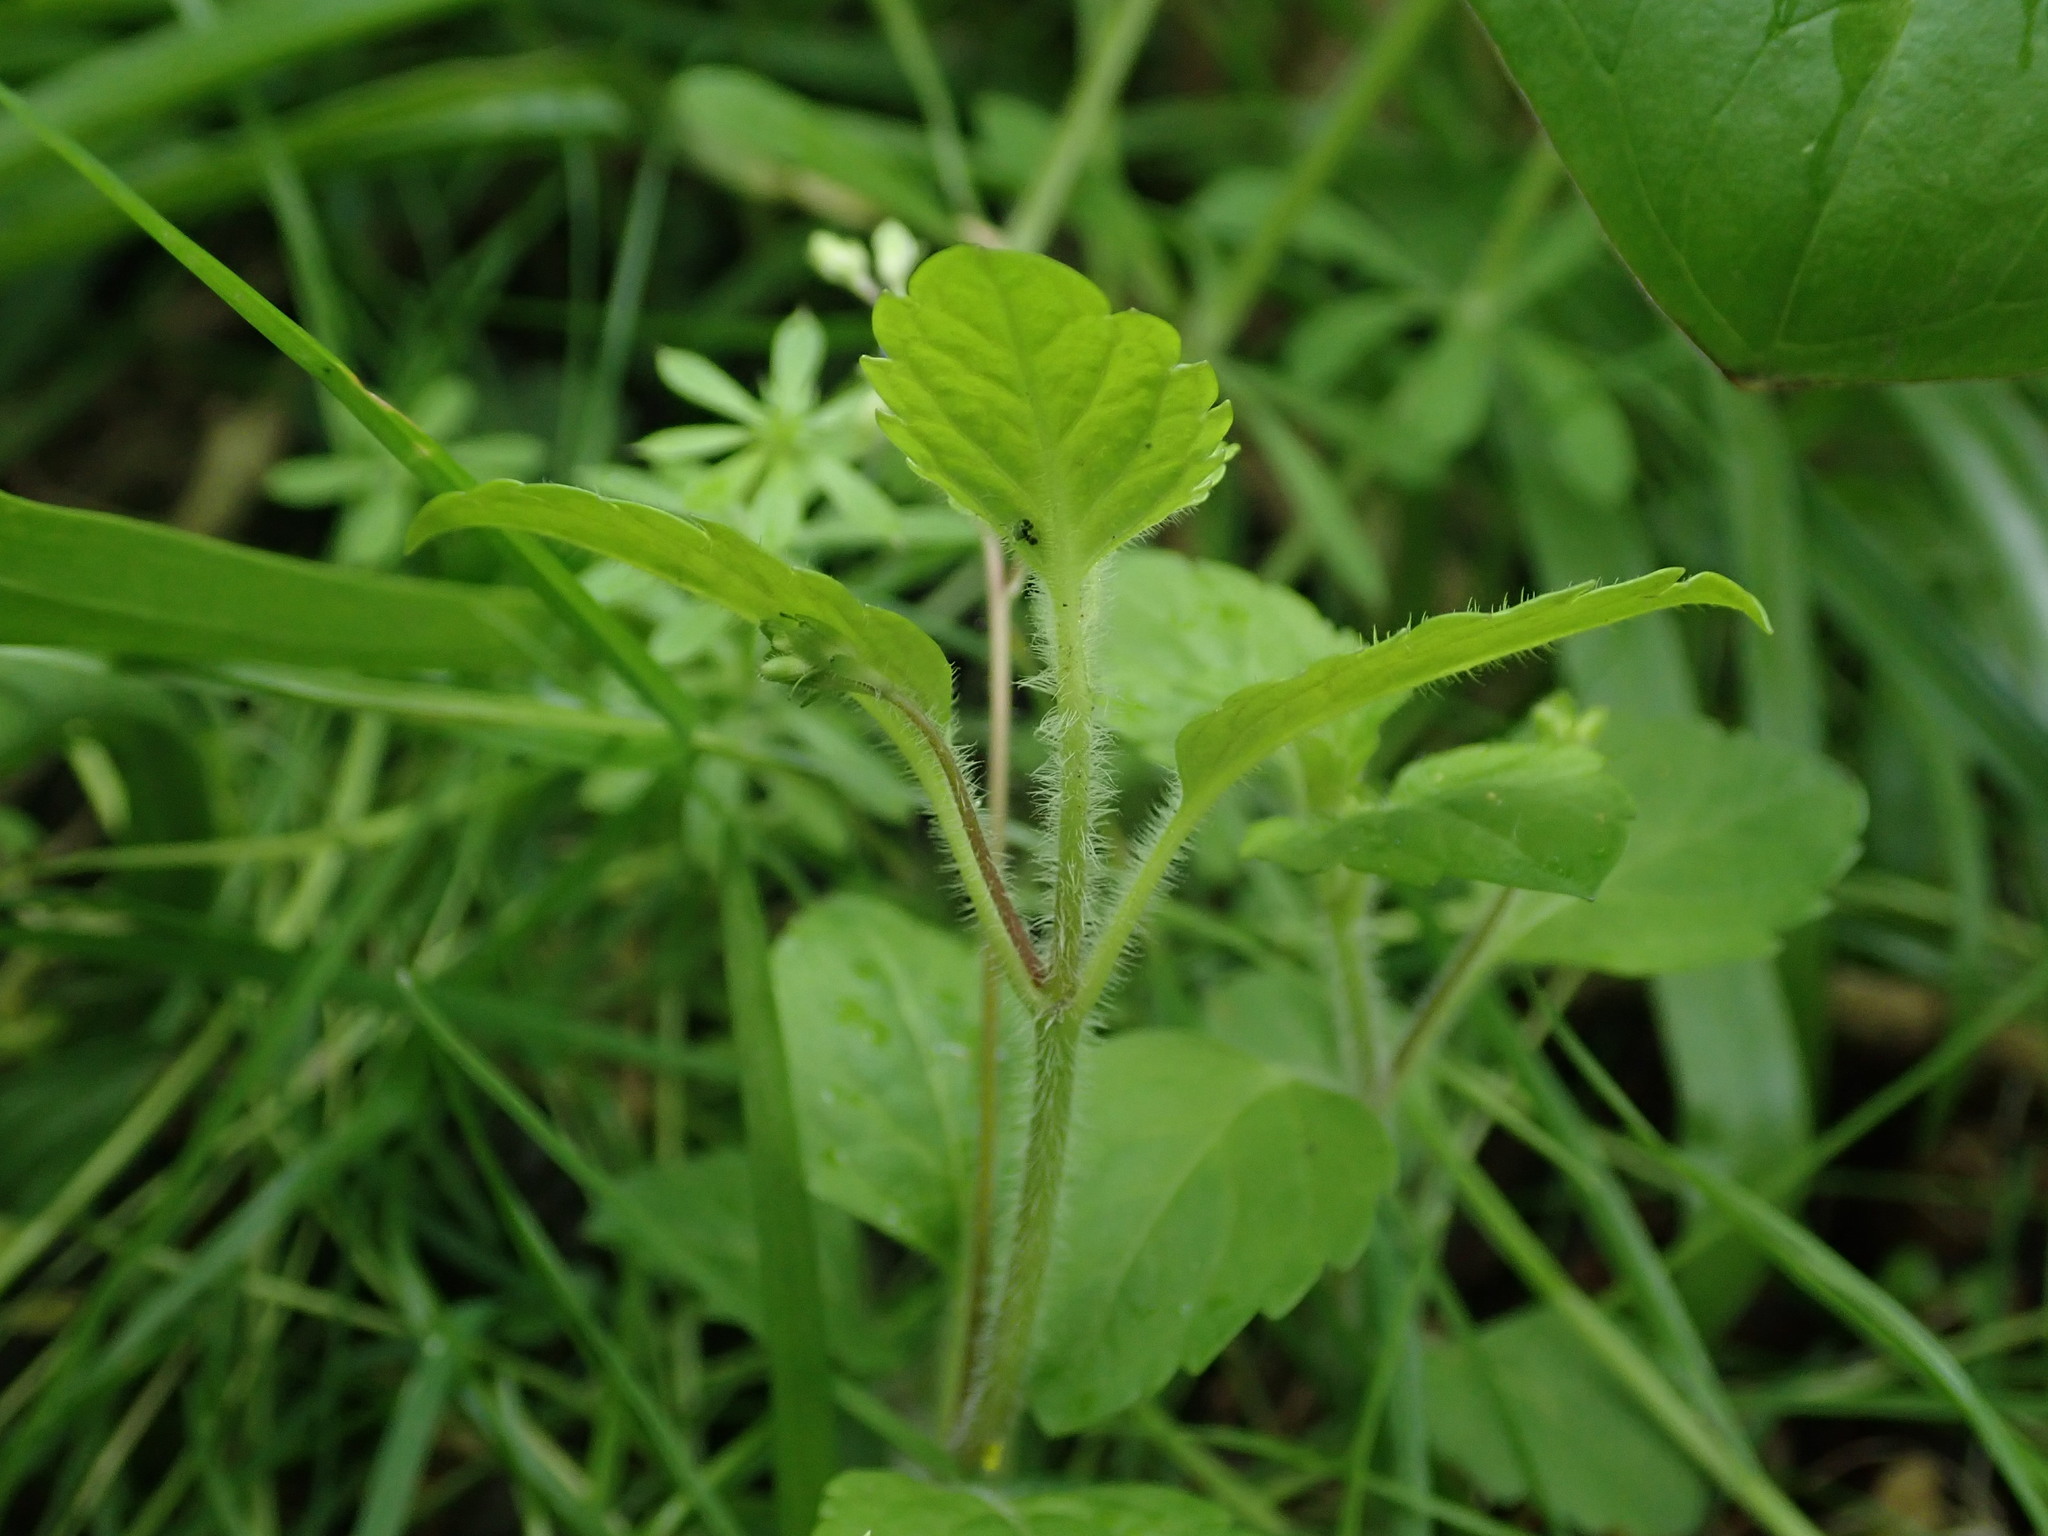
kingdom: Plantae
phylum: Tracheophyta
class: Magnoliopsida
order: Lamiales
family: Plantaginaceae
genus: Veronica
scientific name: Veronica montana
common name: Wood speedwell
